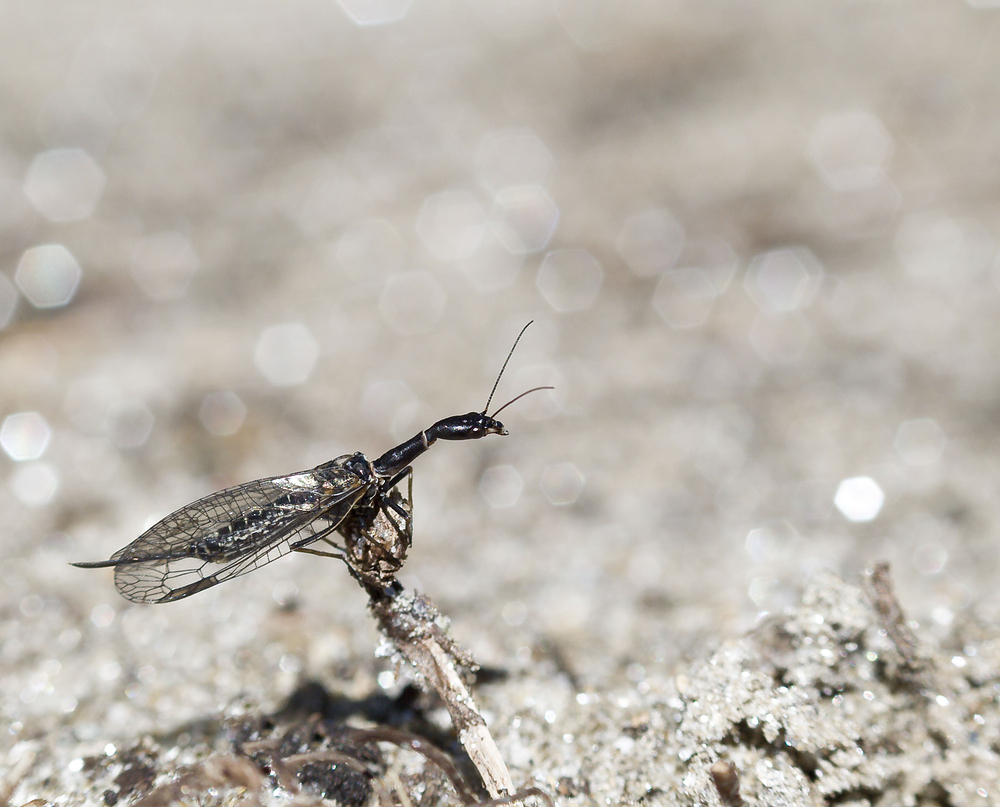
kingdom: Animalia
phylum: Arthropoda
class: Insecta
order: Raphidioptera
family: Raphidiidae
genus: Subilla
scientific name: Subilla confinis
